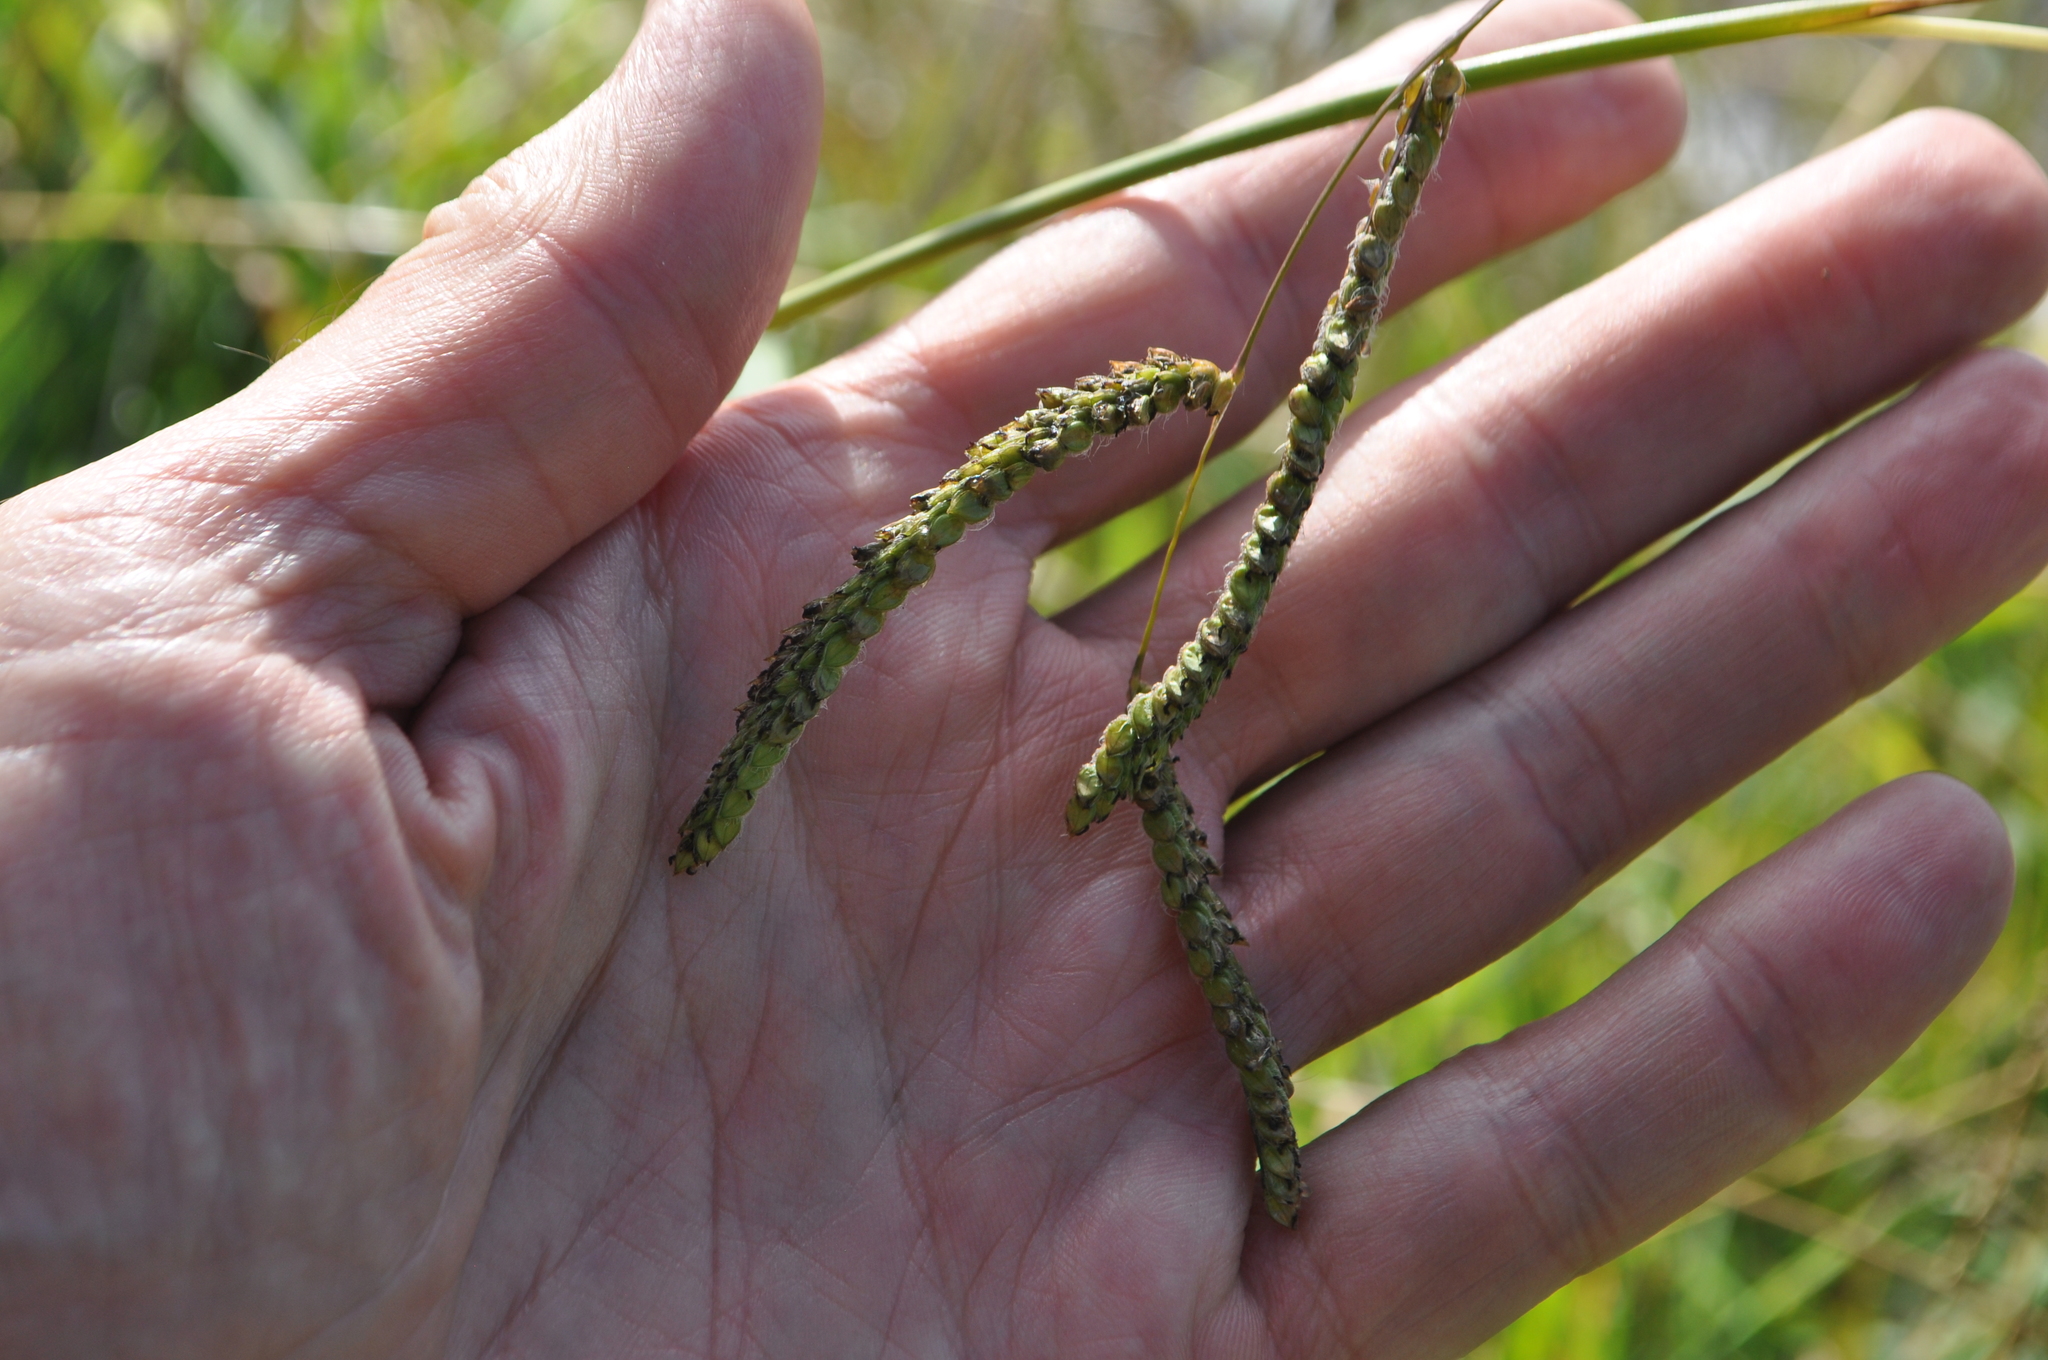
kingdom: Plantae
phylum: Tracheophyta
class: Liliopsida
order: Poales
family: Poaceae
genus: Paspalum
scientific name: Paspalum dilatatum
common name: Dallisgrass
